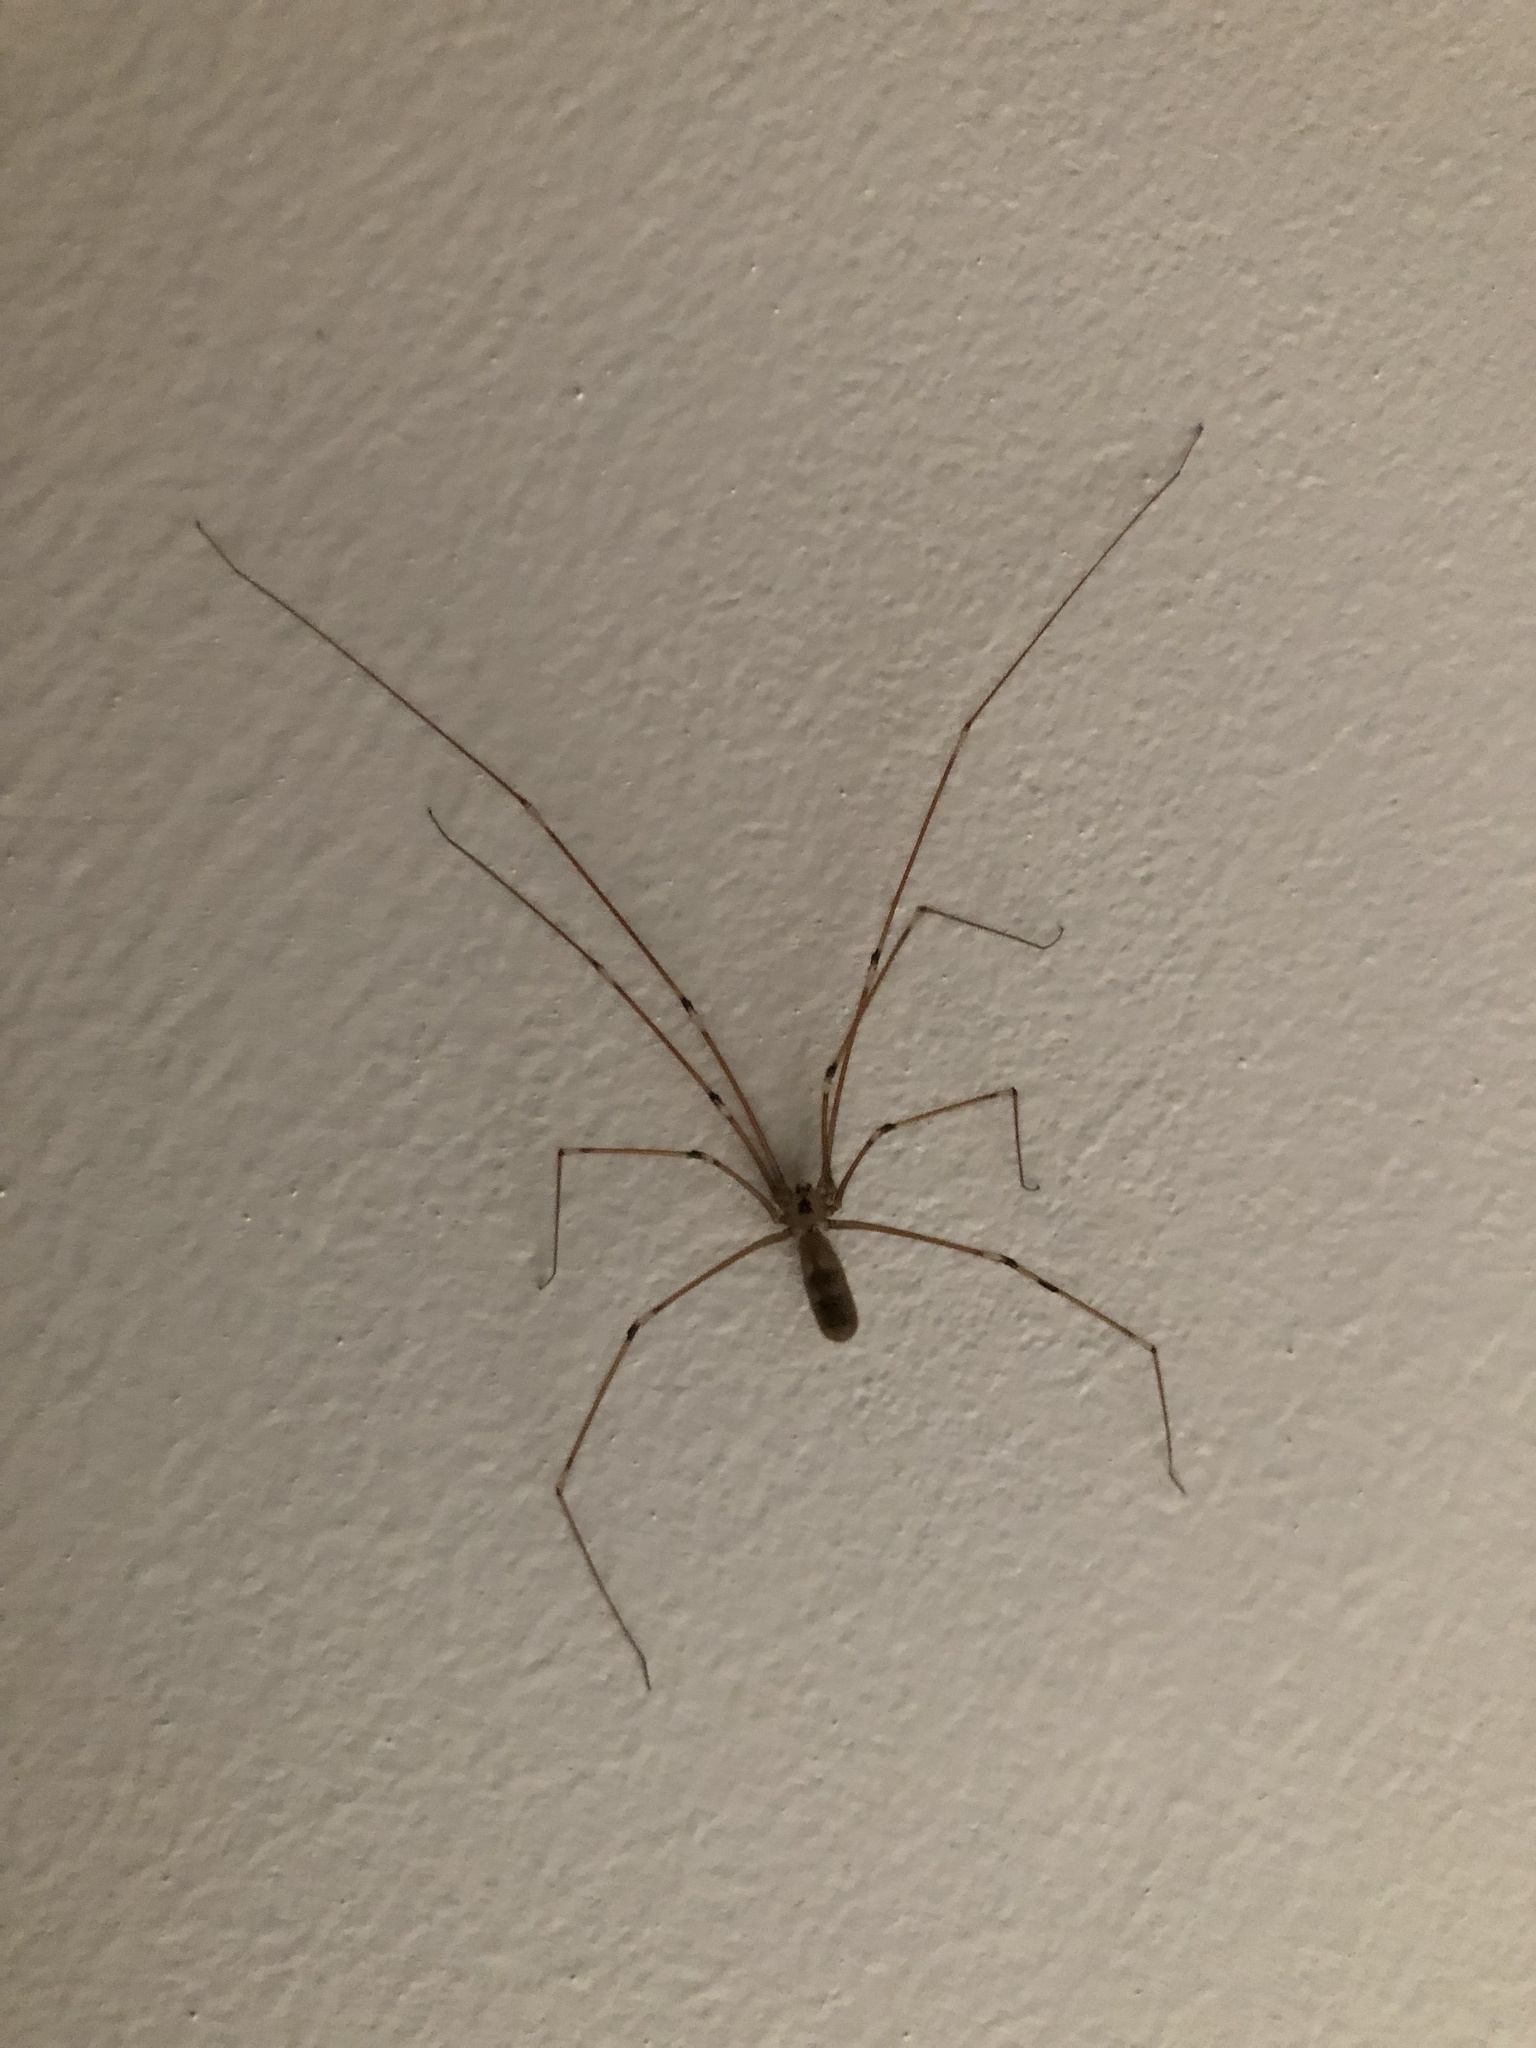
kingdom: Animalia
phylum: Arthropoda
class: Arachnida
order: Araneae
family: Pholcidae
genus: Pholcus
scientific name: Pholcus phalangioides
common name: Longbodied cellar spider
